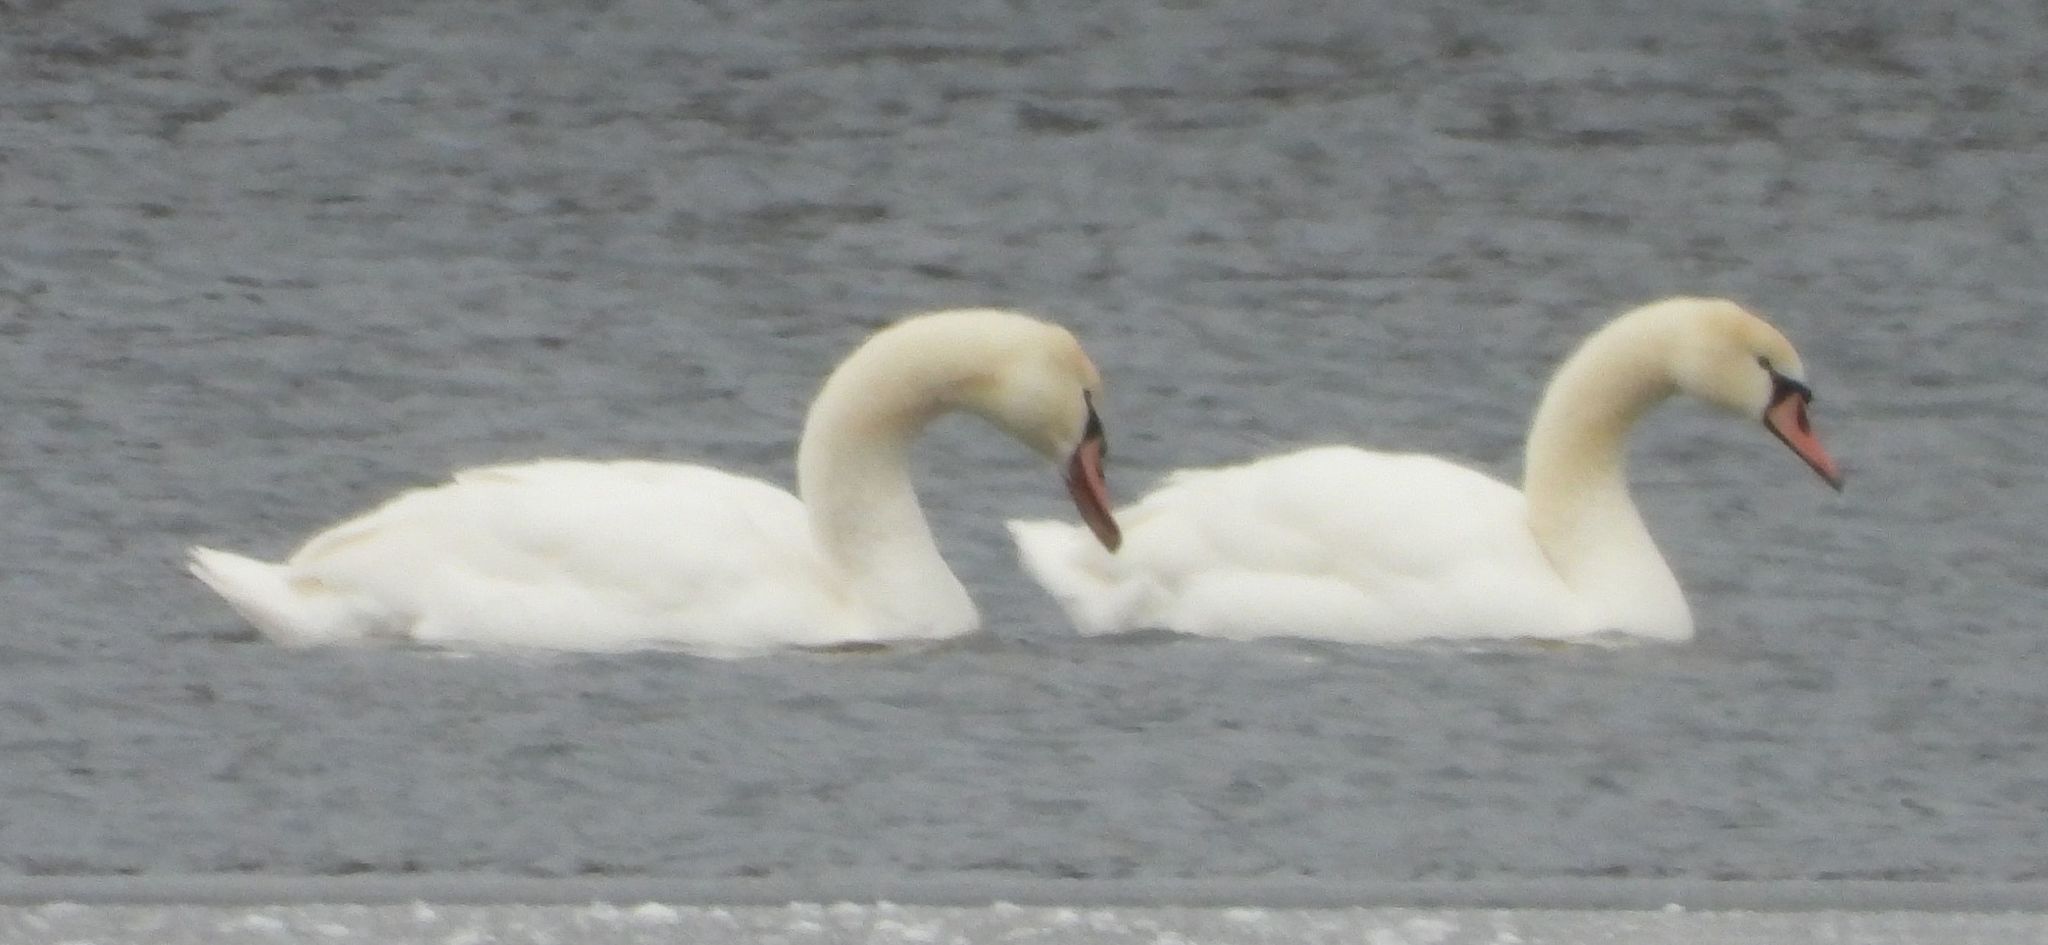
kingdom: Animalia
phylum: Chordata
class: Aves
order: Anseriformes
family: Anatidae
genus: Cygnus
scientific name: Cygnus olor
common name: Mute swan
